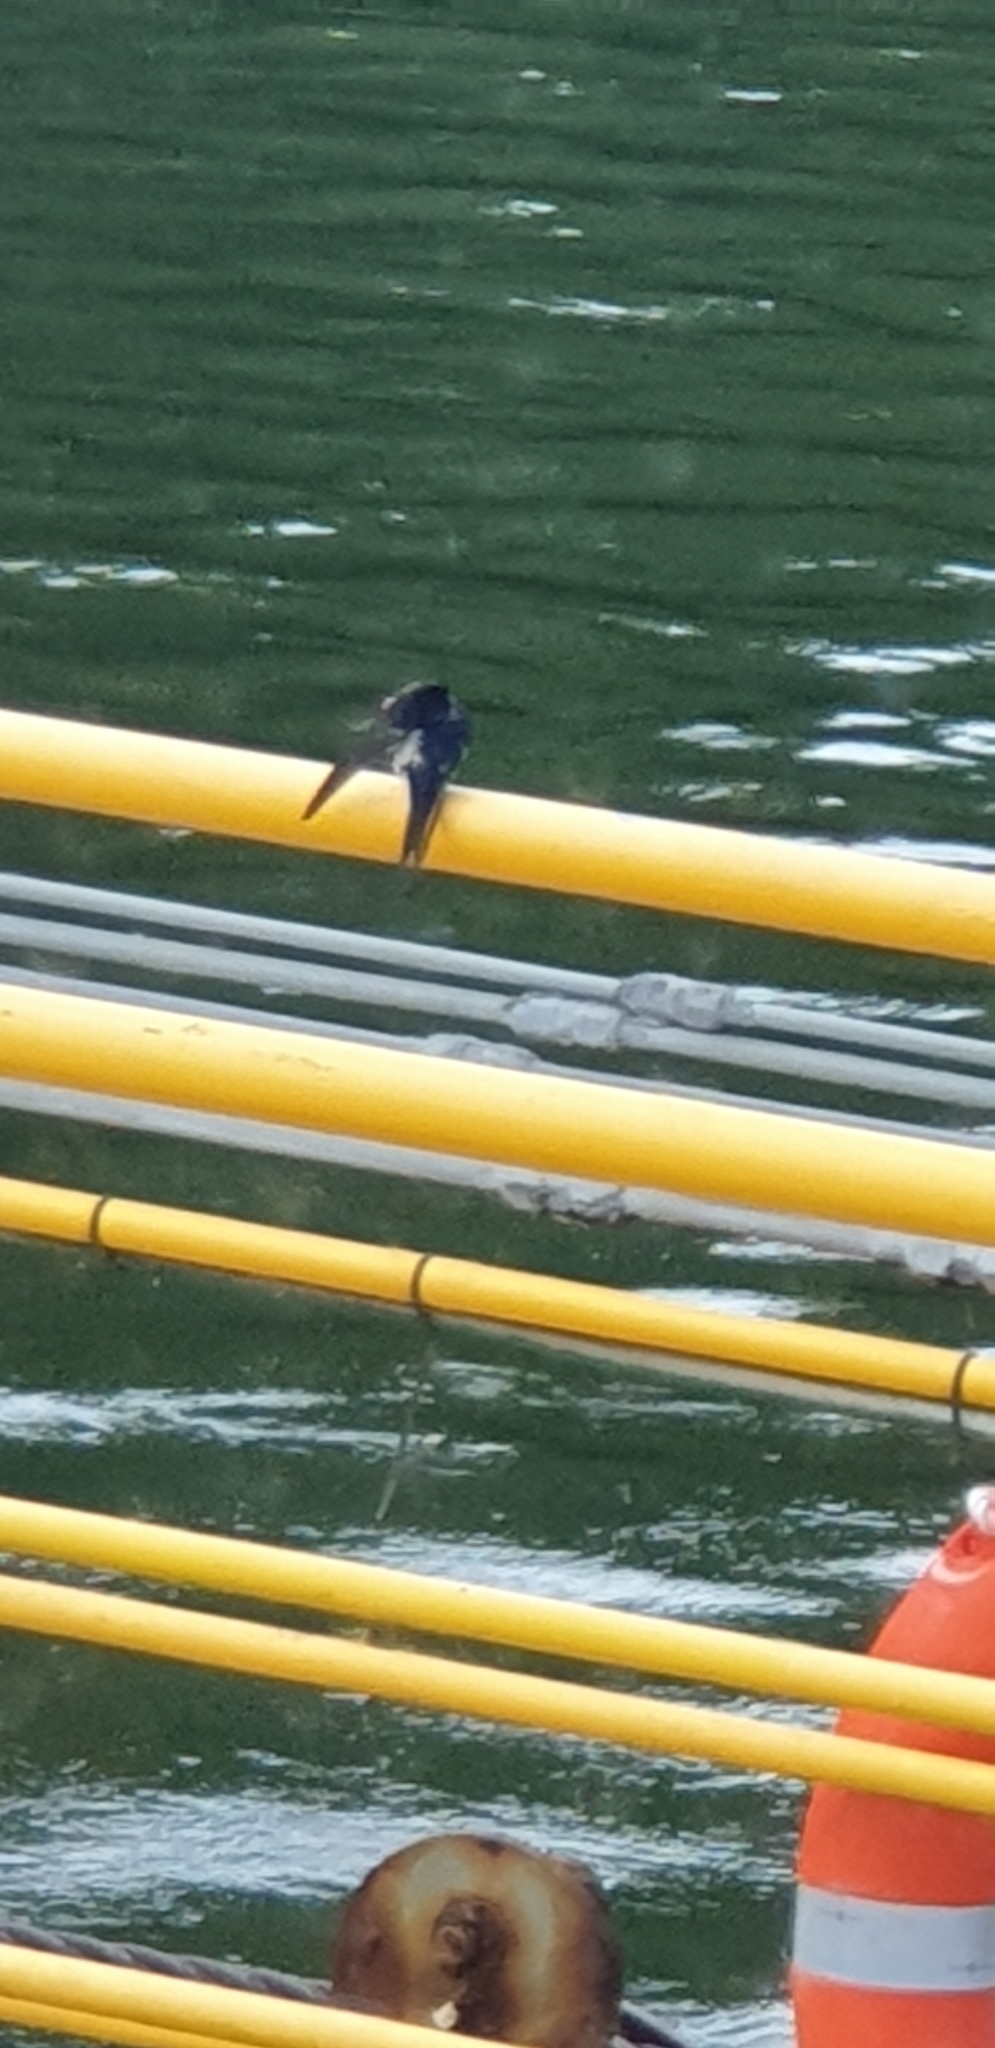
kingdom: Animalia
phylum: Chordata
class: Aves
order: Passeriformes
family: Hirundinidae
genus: Hirundo
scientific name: Hirundo neoxena
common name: Welcome swallow
